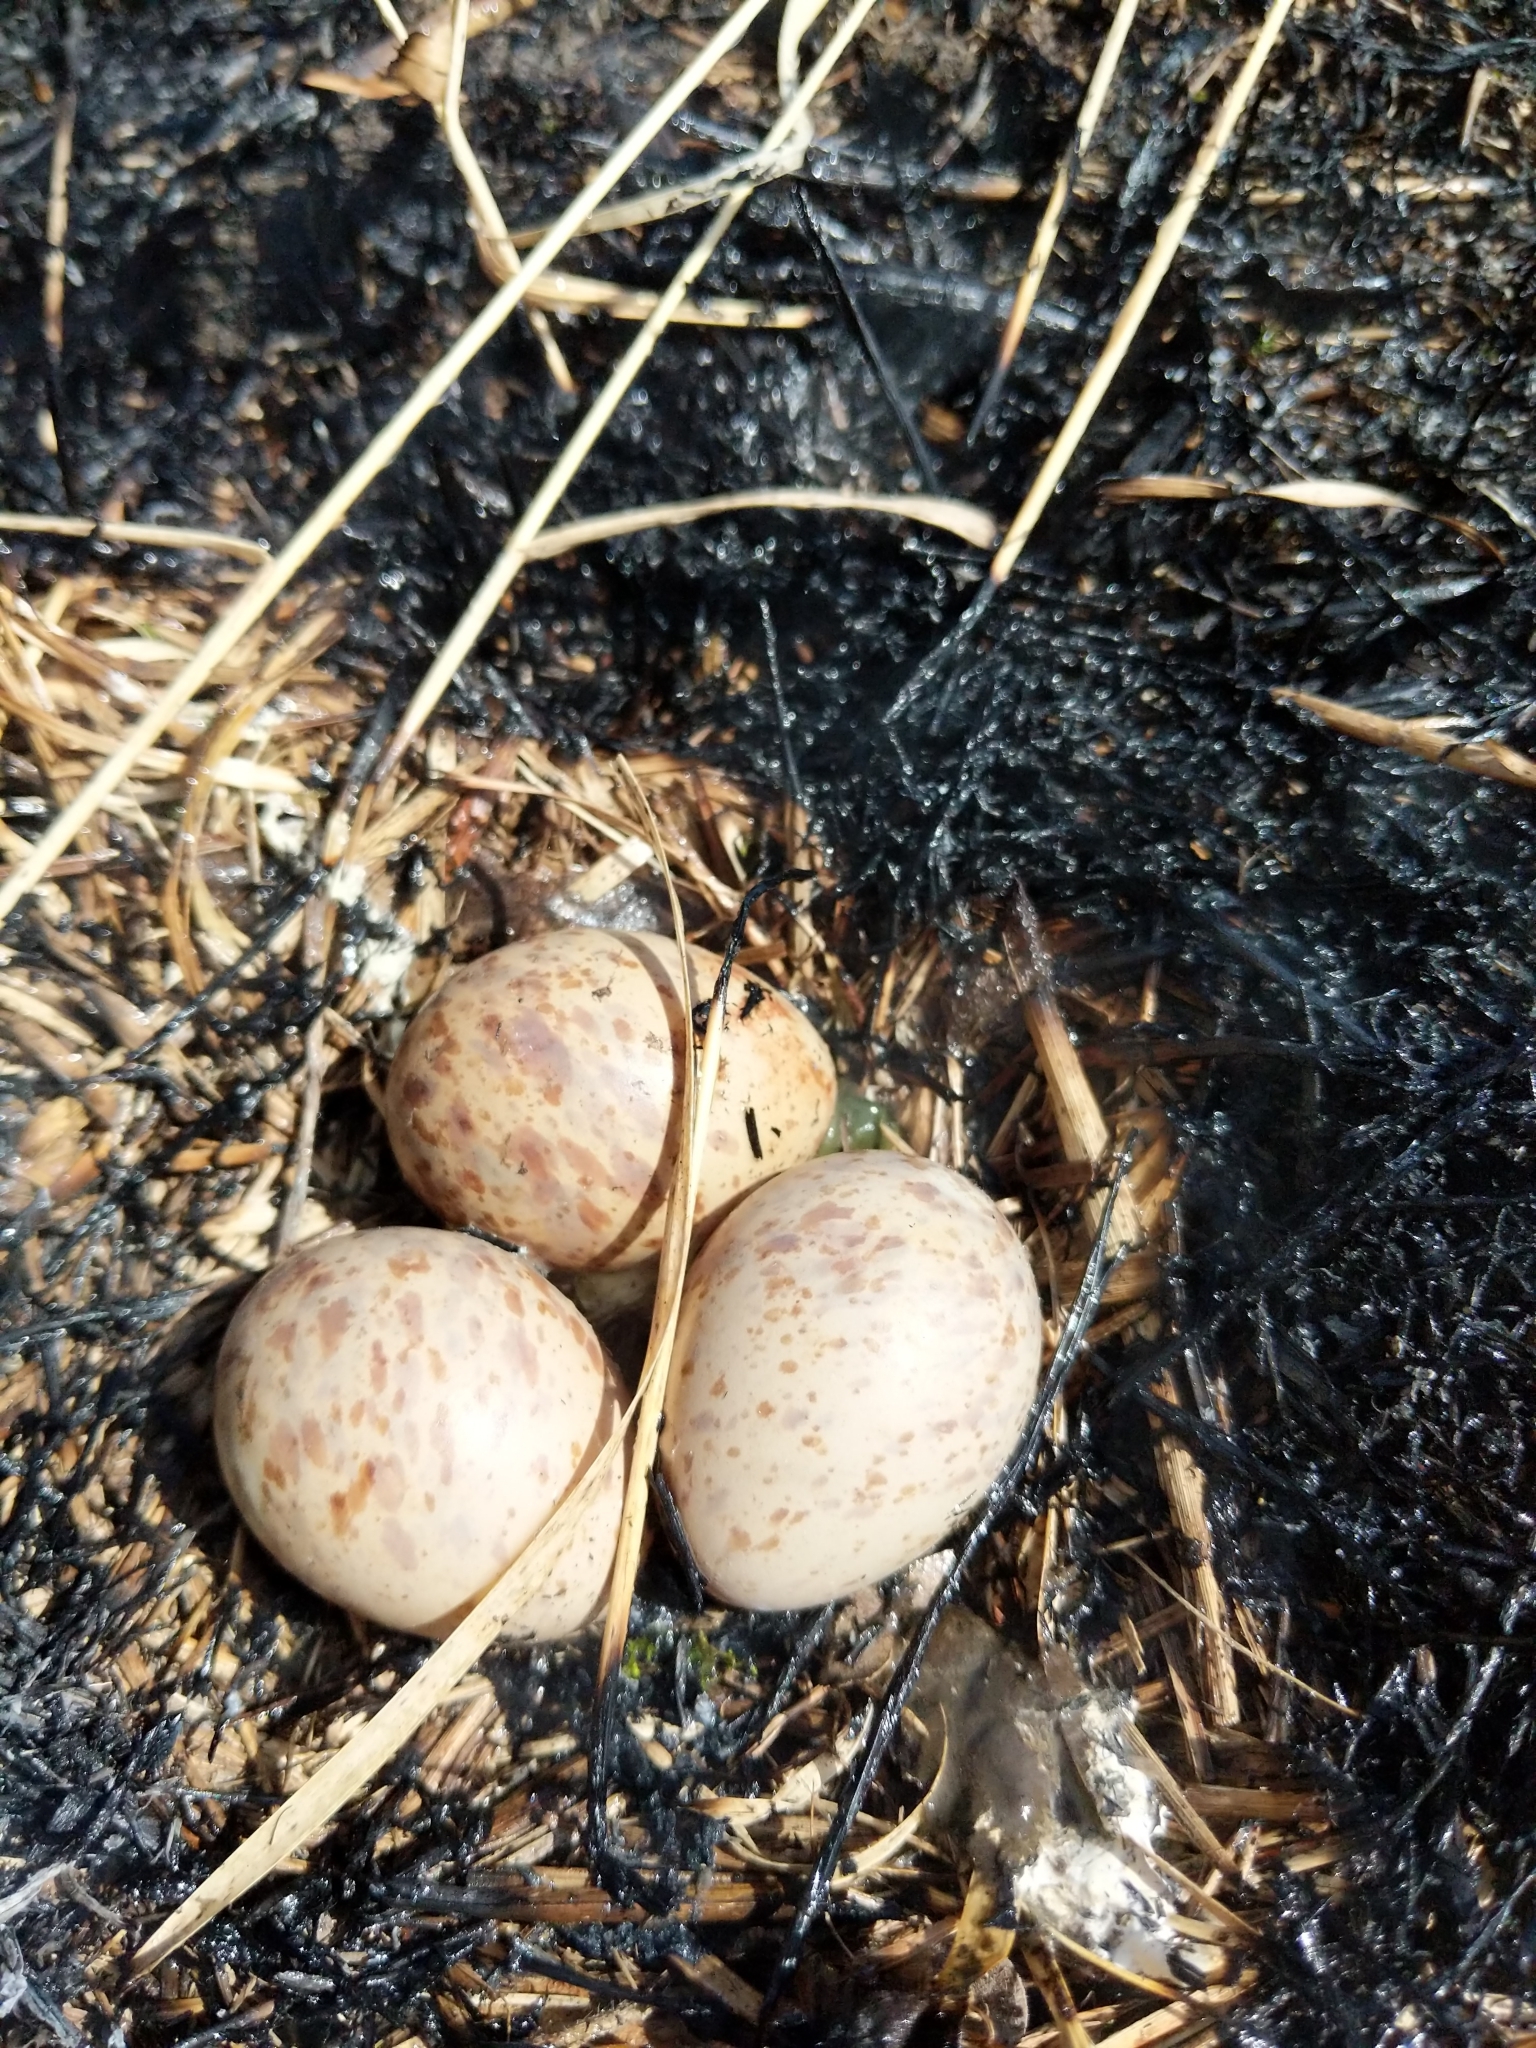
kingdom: Animalia
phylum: Chordata
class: Aves
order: Charadriiformes
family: Scolopacidae
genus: Scolopax
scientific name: Scolopax minor
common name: American woodcock
